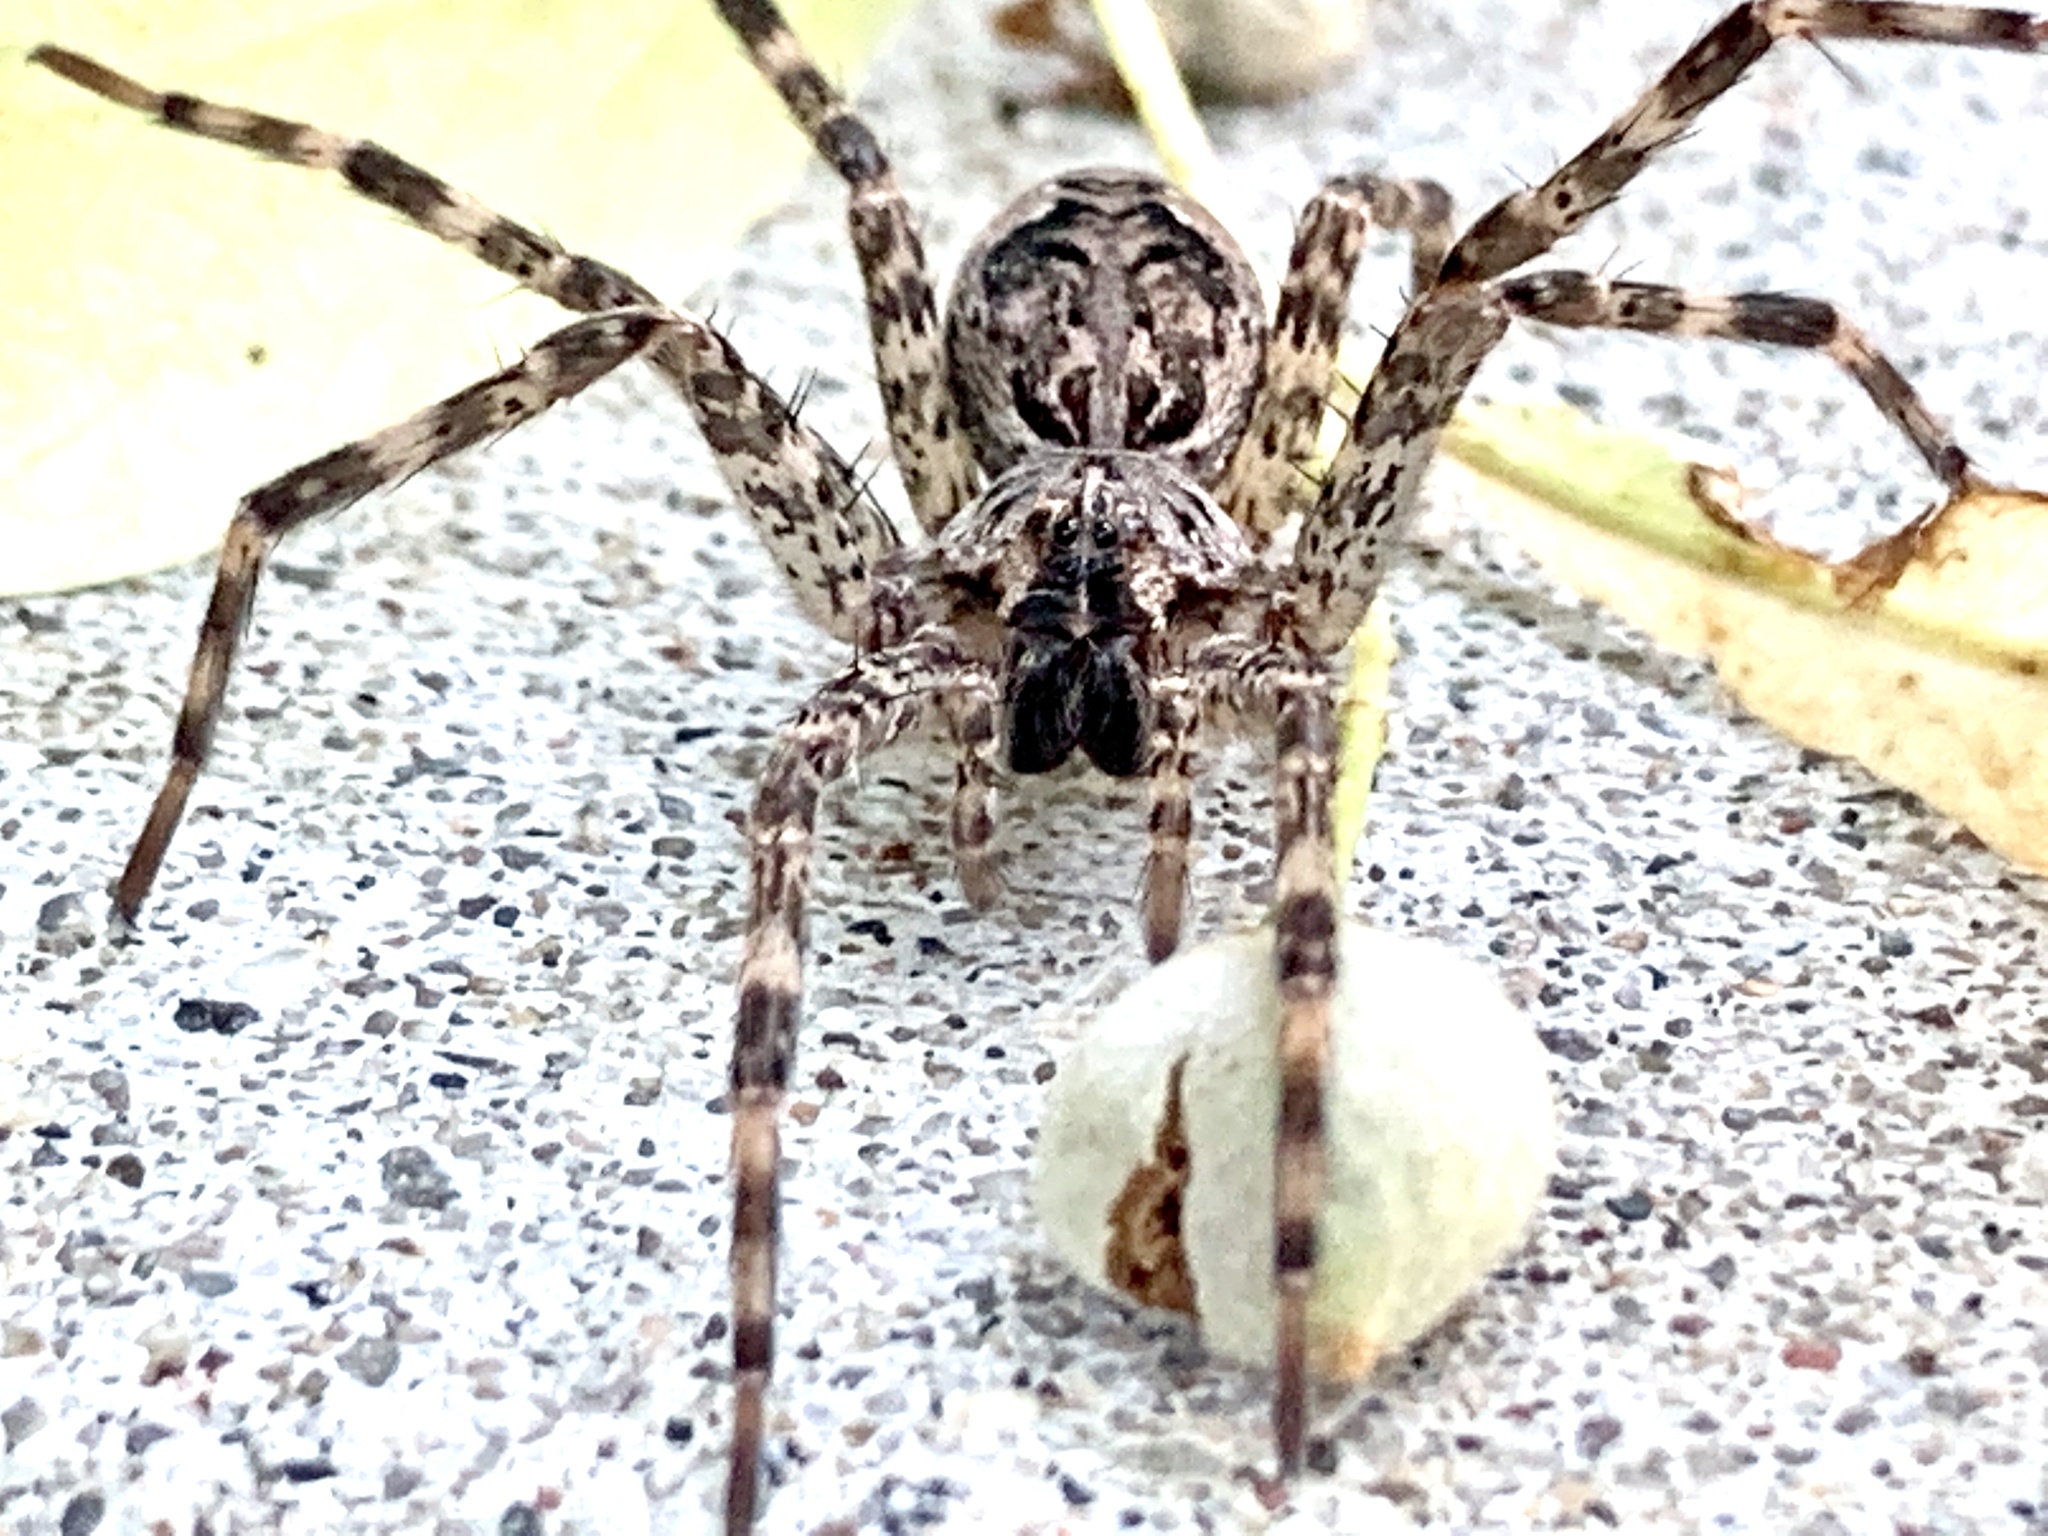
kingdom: Animalia
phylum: Arthropoda
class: Arachnida
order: Araneae
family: Pisauridae
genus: Dolomedes
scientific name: Dolomedes tenebrosus
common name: Dark fishing spider
